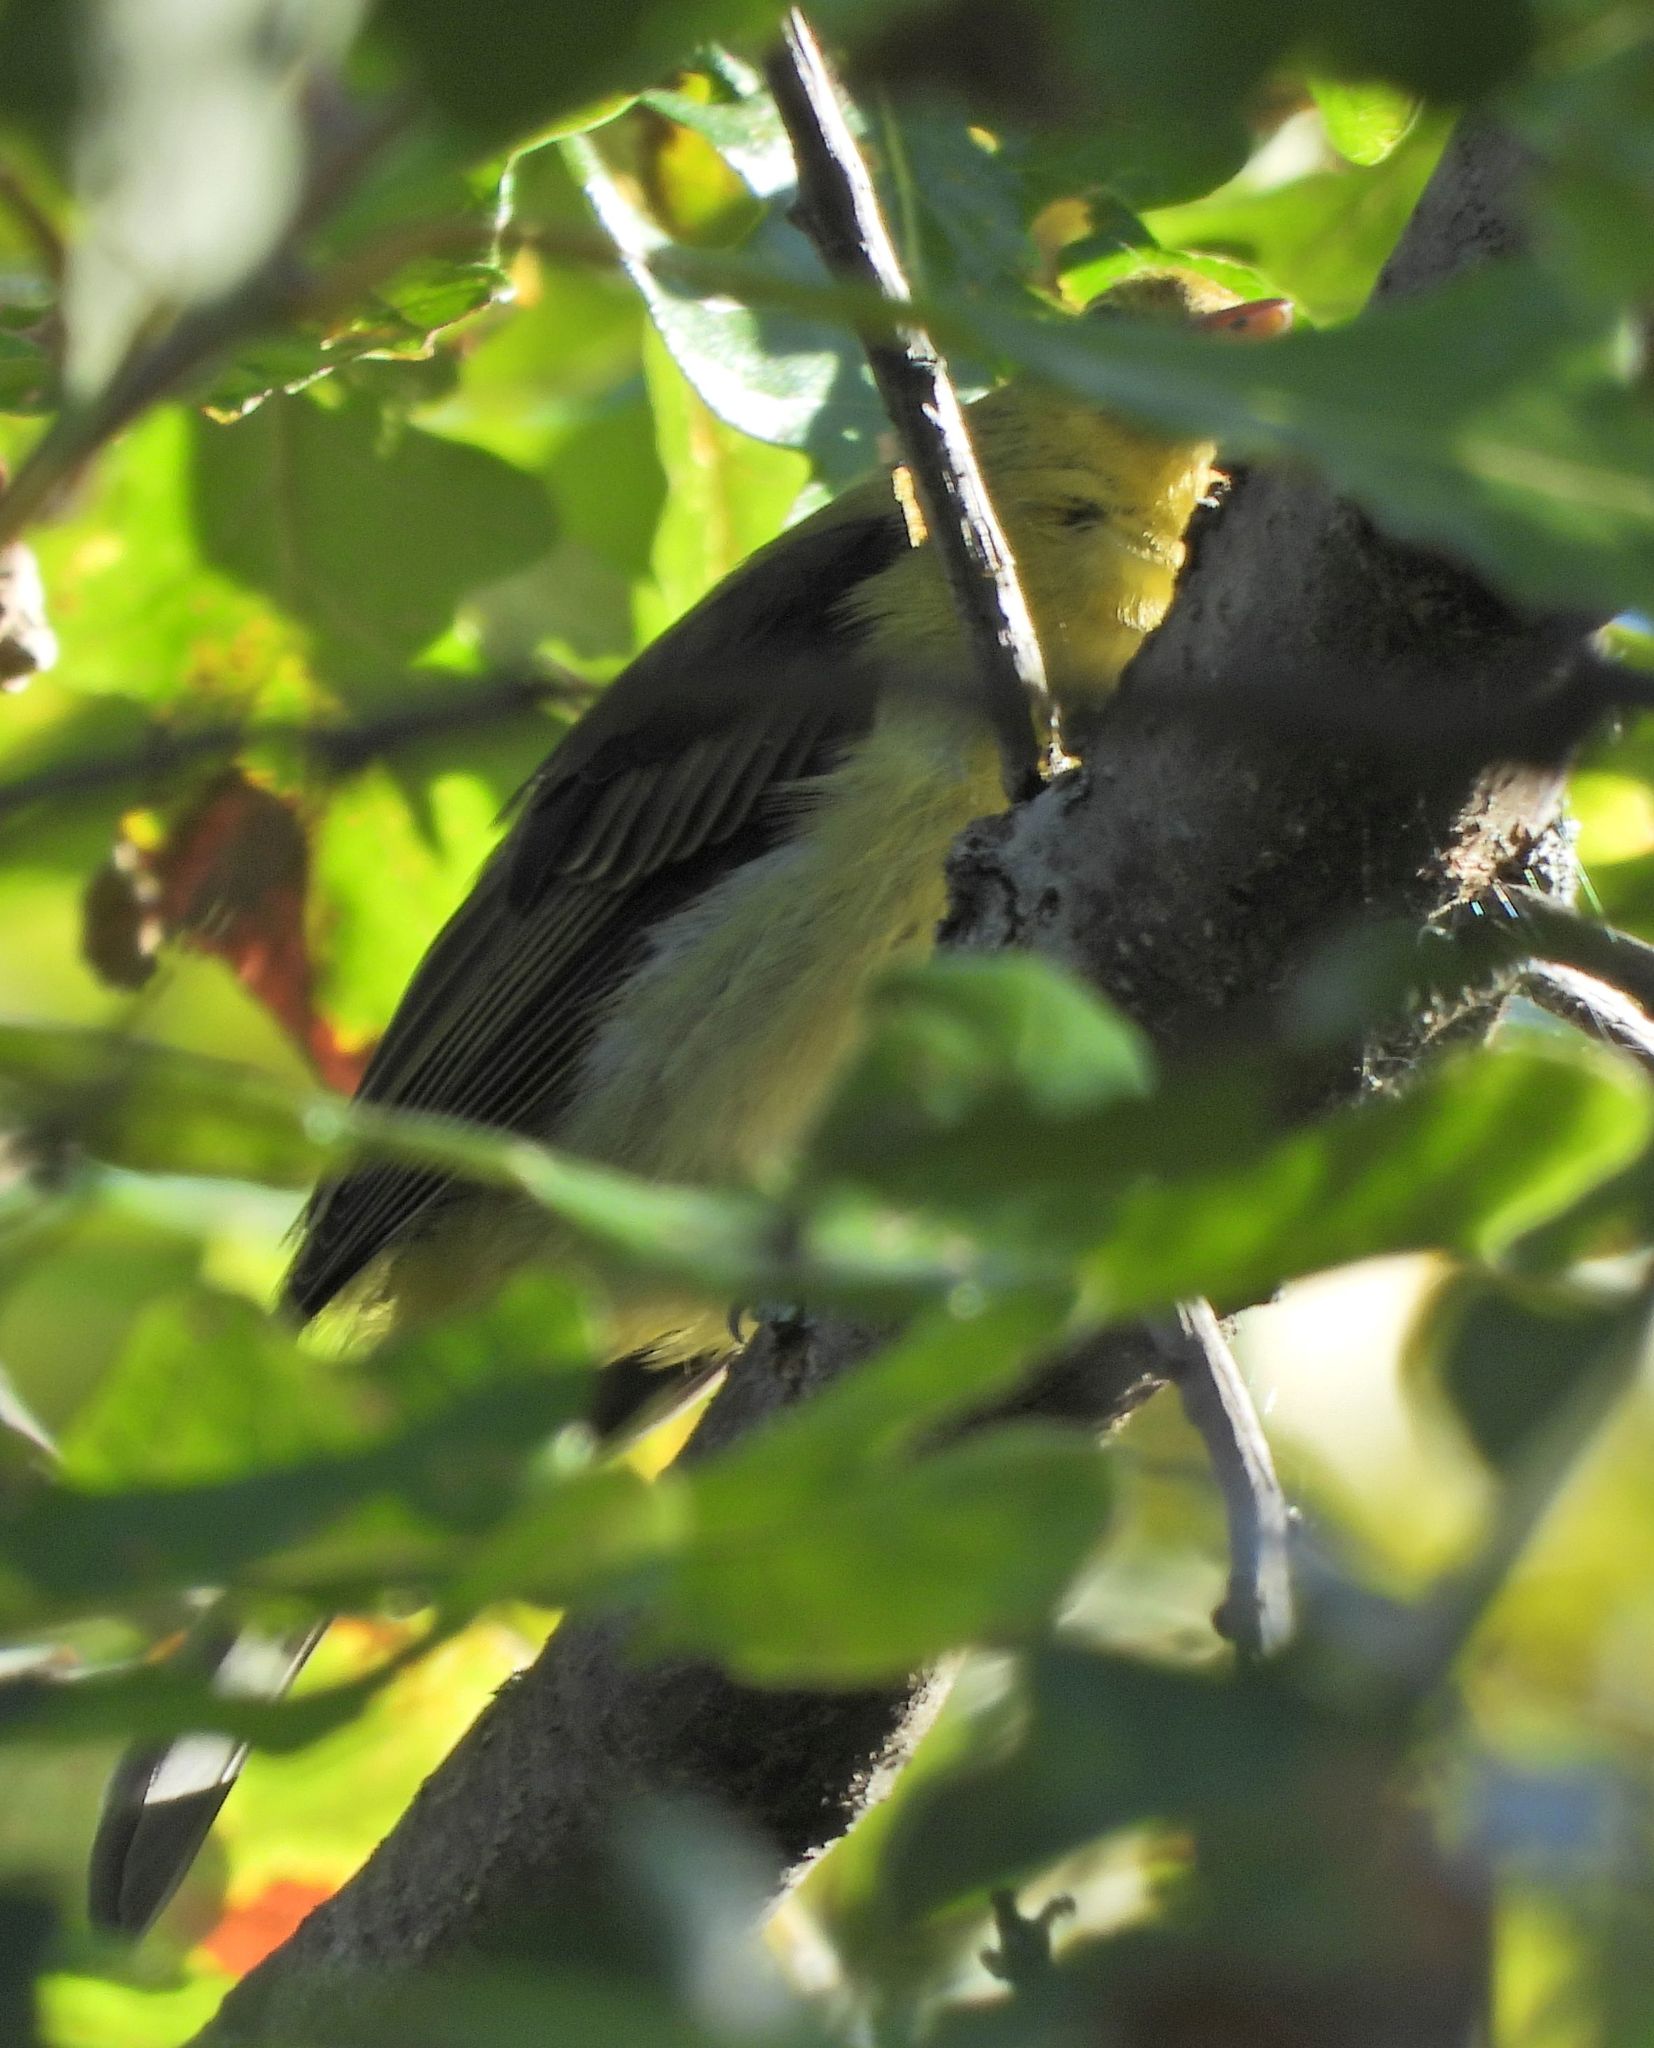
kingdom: Animalia
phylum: Chordata
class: Aves
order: Passeriformes
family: Cardinalidae
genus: Piranga
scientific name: Piranga olivacea
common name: Scarlet tanager
